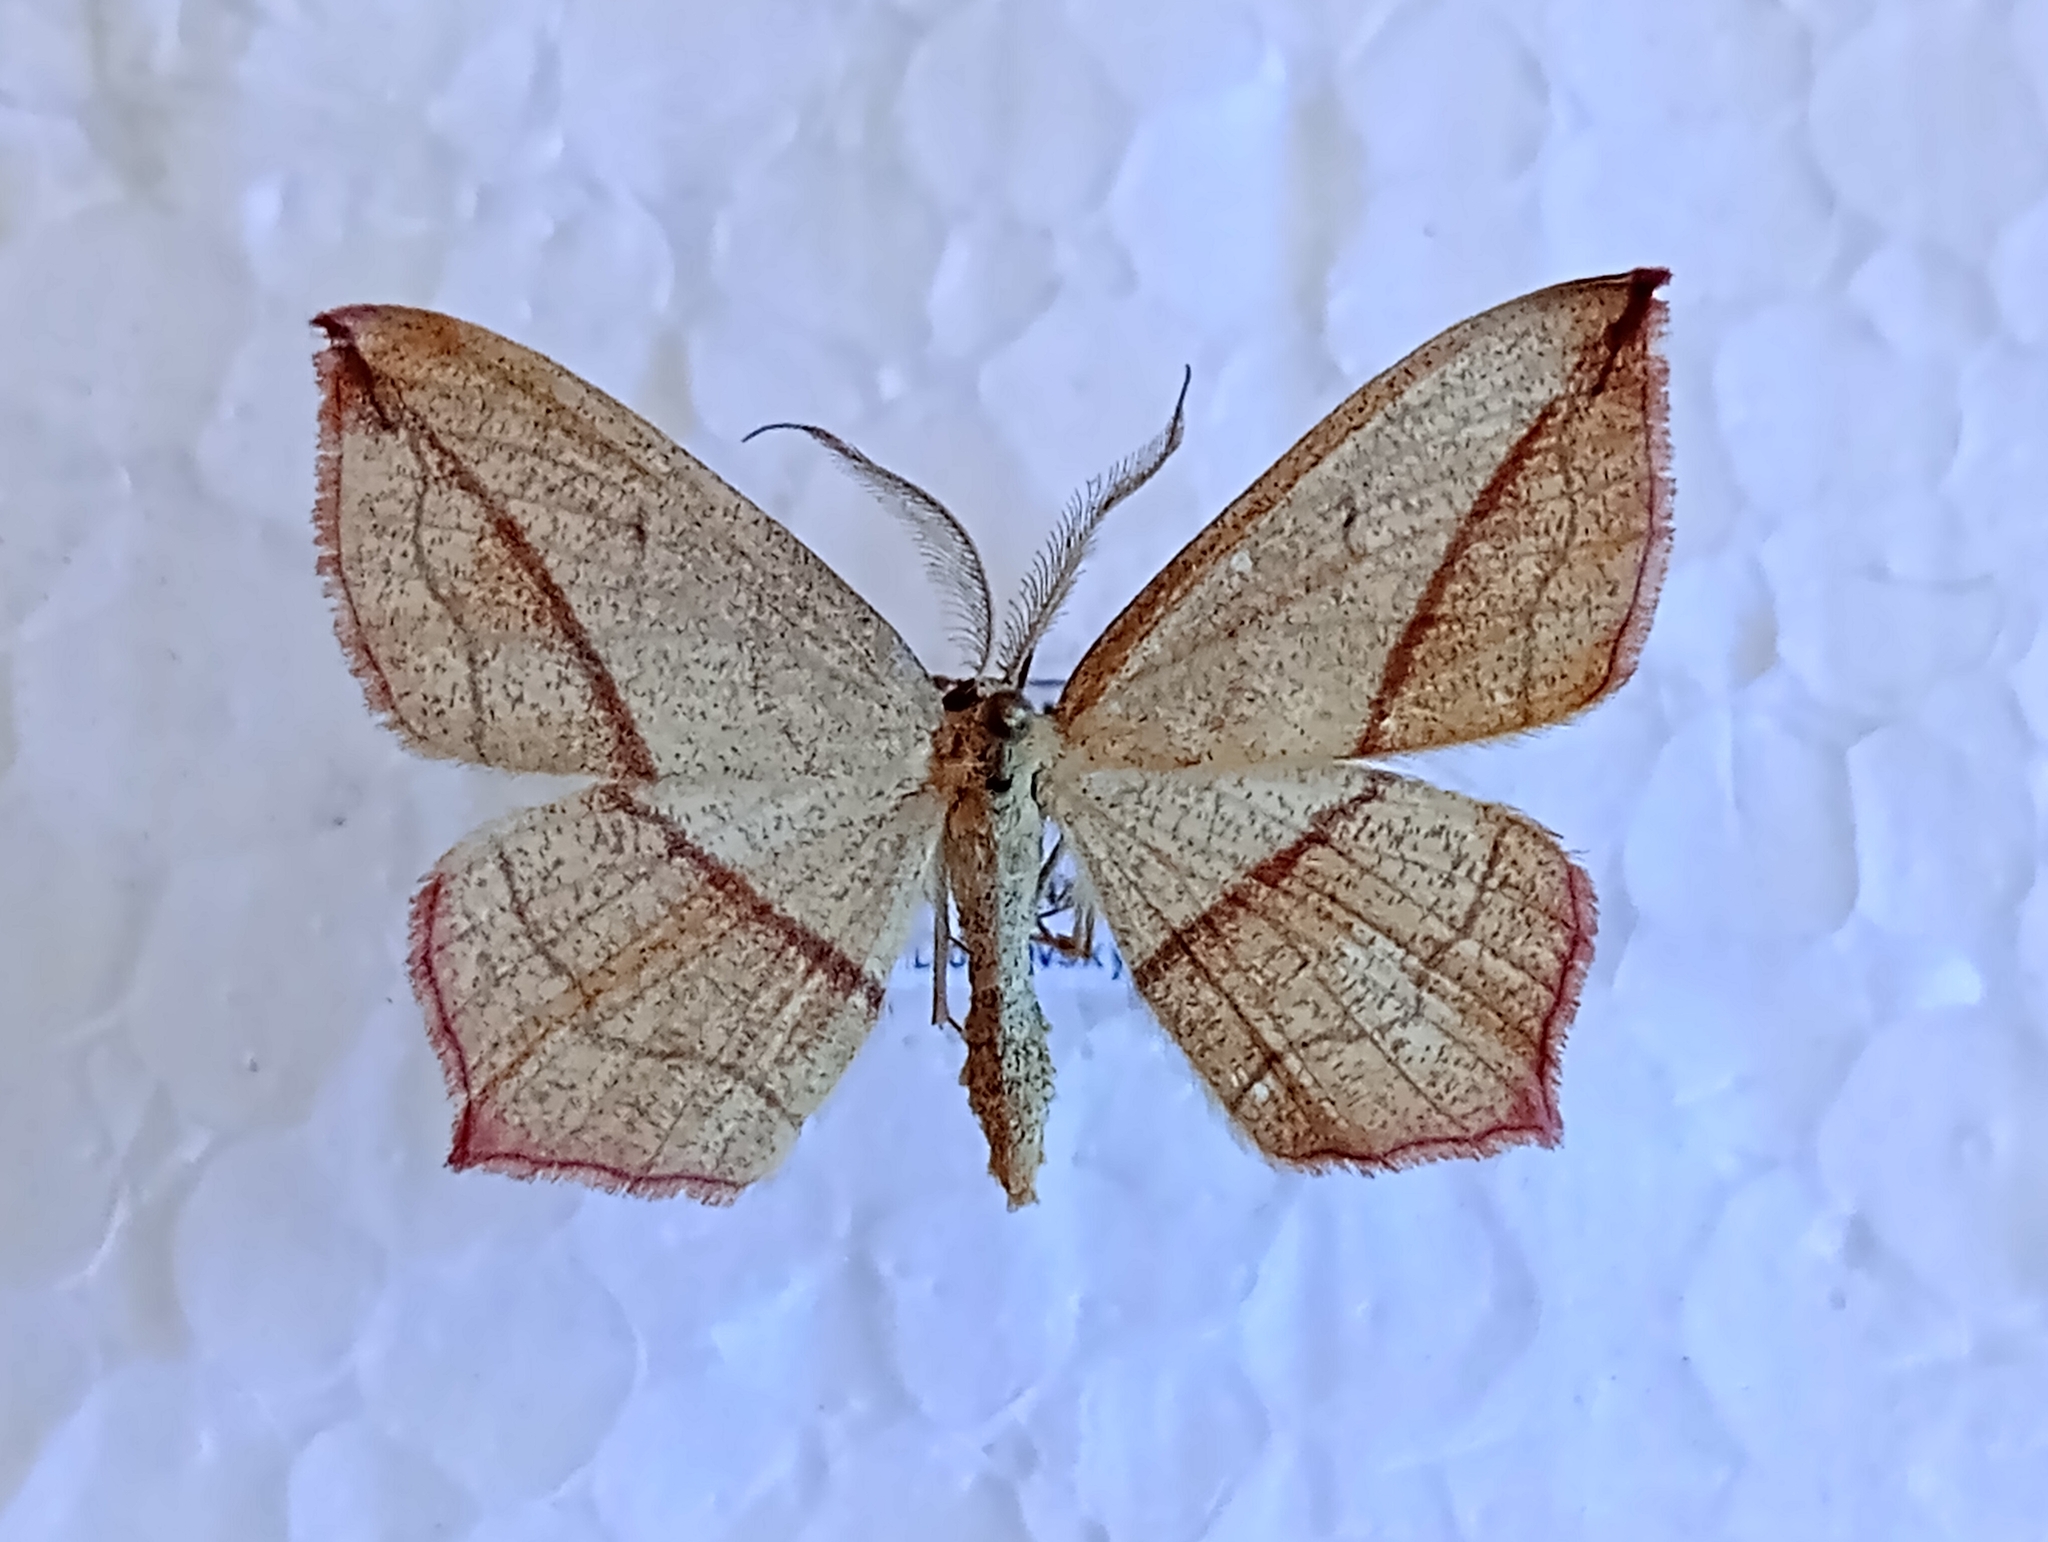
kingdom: Animalia
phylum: Arthropoda
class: Insecta
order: Lepidoptera
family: Geometridae
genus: Timandra
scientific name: Timandra comae
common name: Blood-vein
